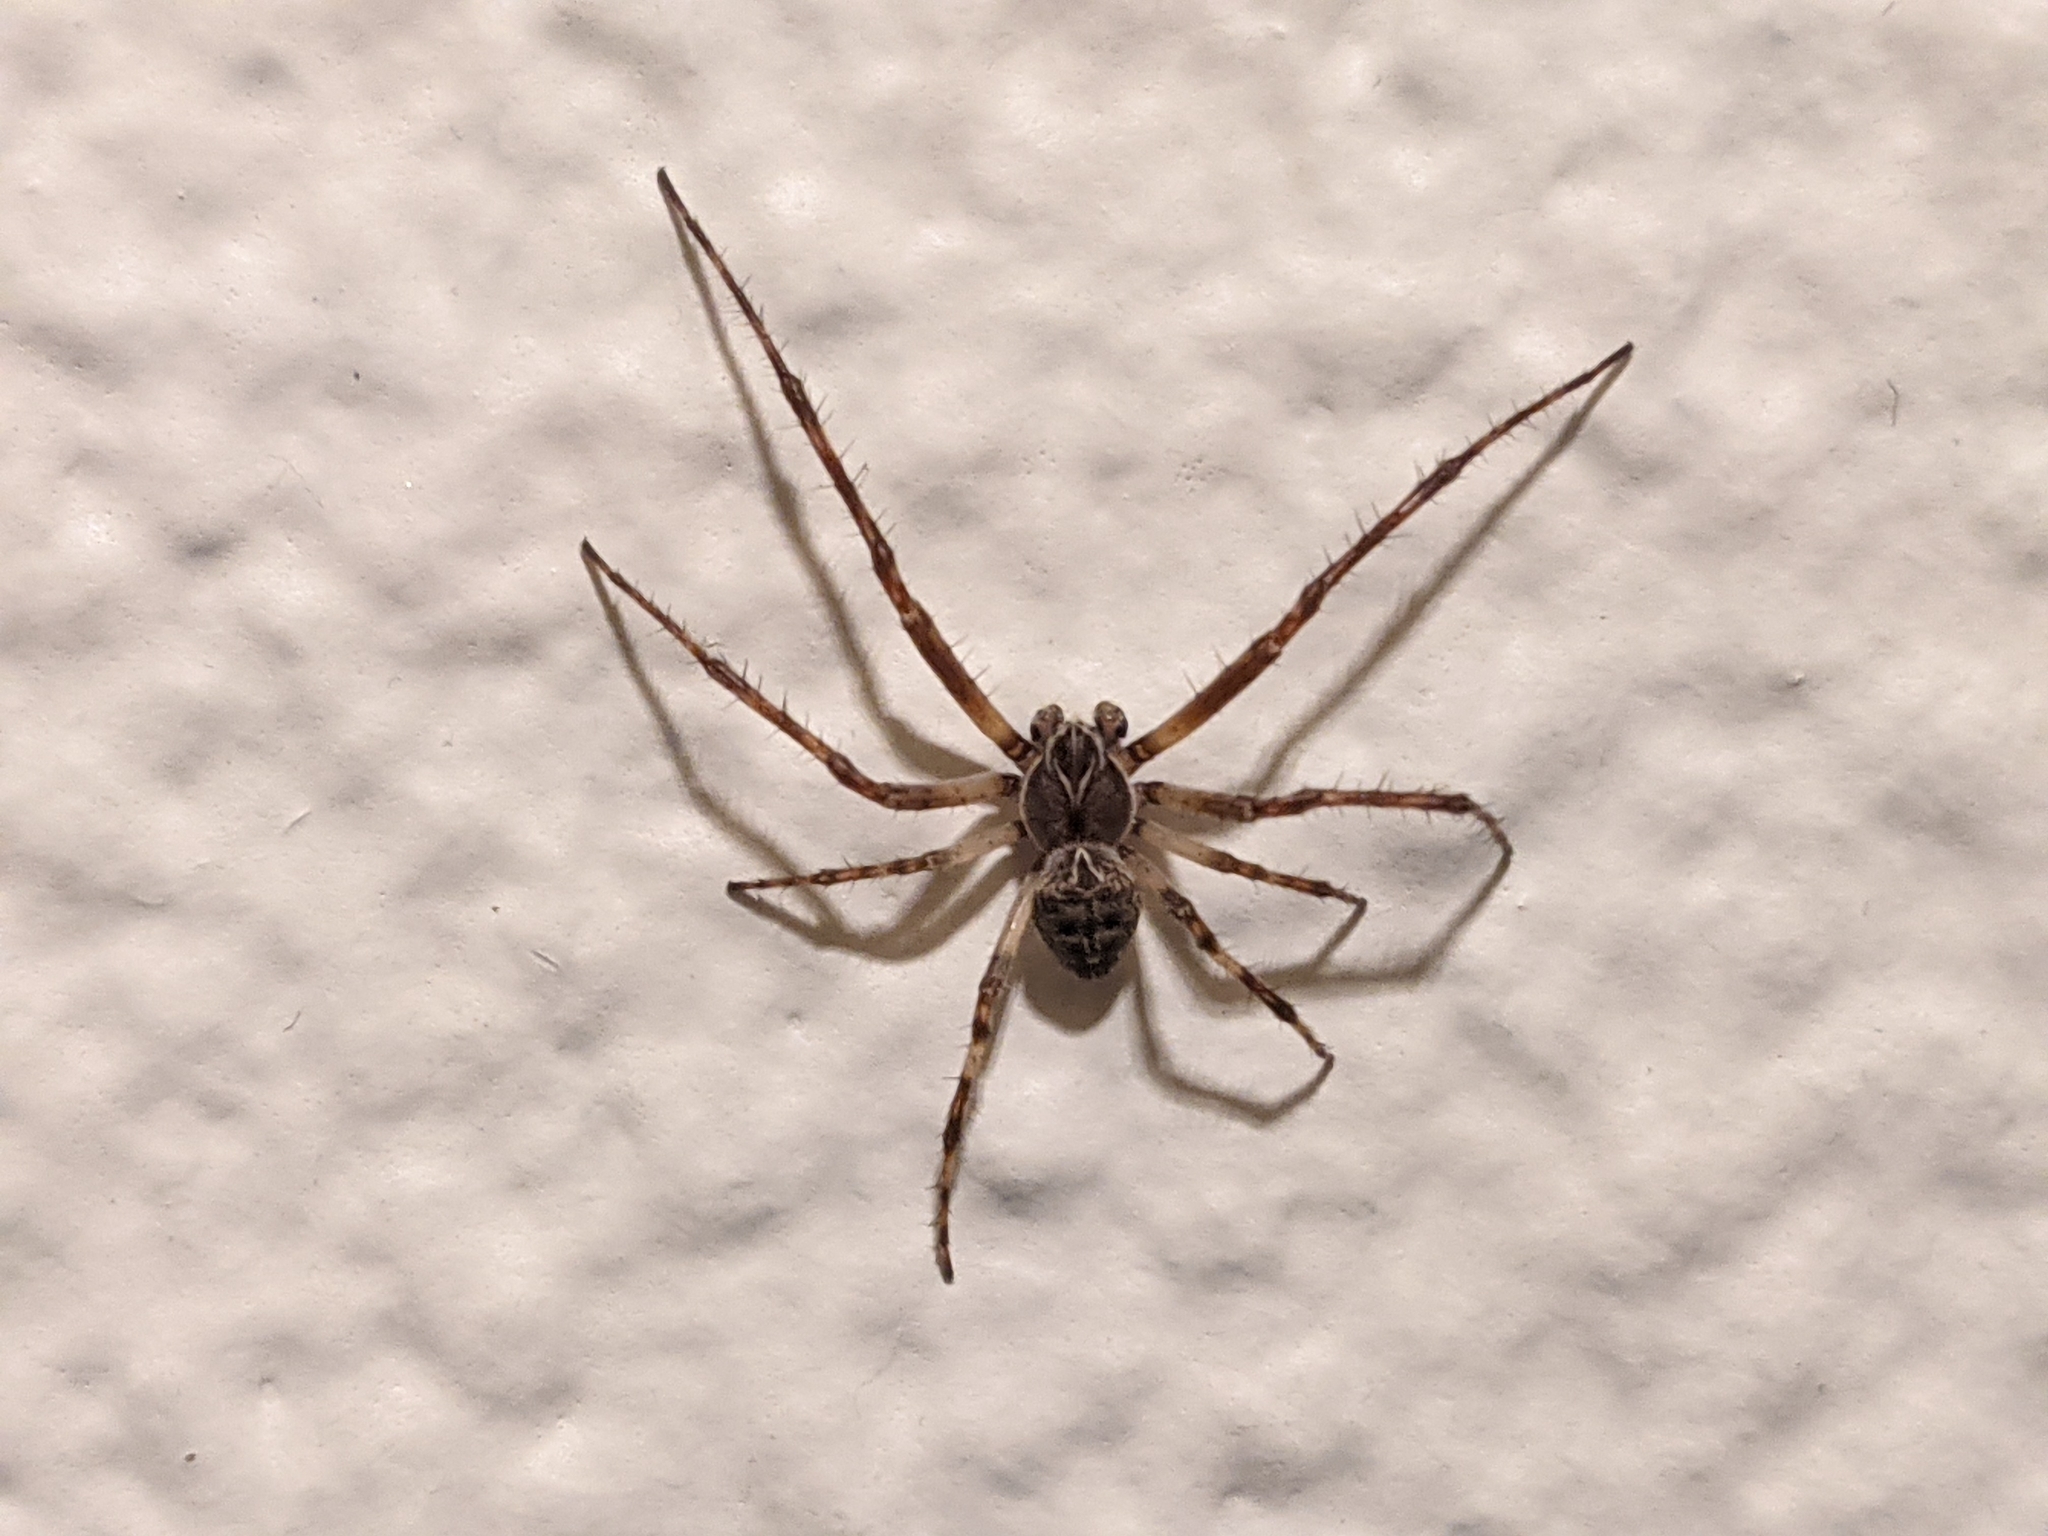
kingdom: Animalia
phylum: Arthropoda
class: Arachnida
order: Araneae
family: Araneidae
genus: Larinioides
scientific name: Larinioides sclopetarius
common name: Bridge orbweaver
